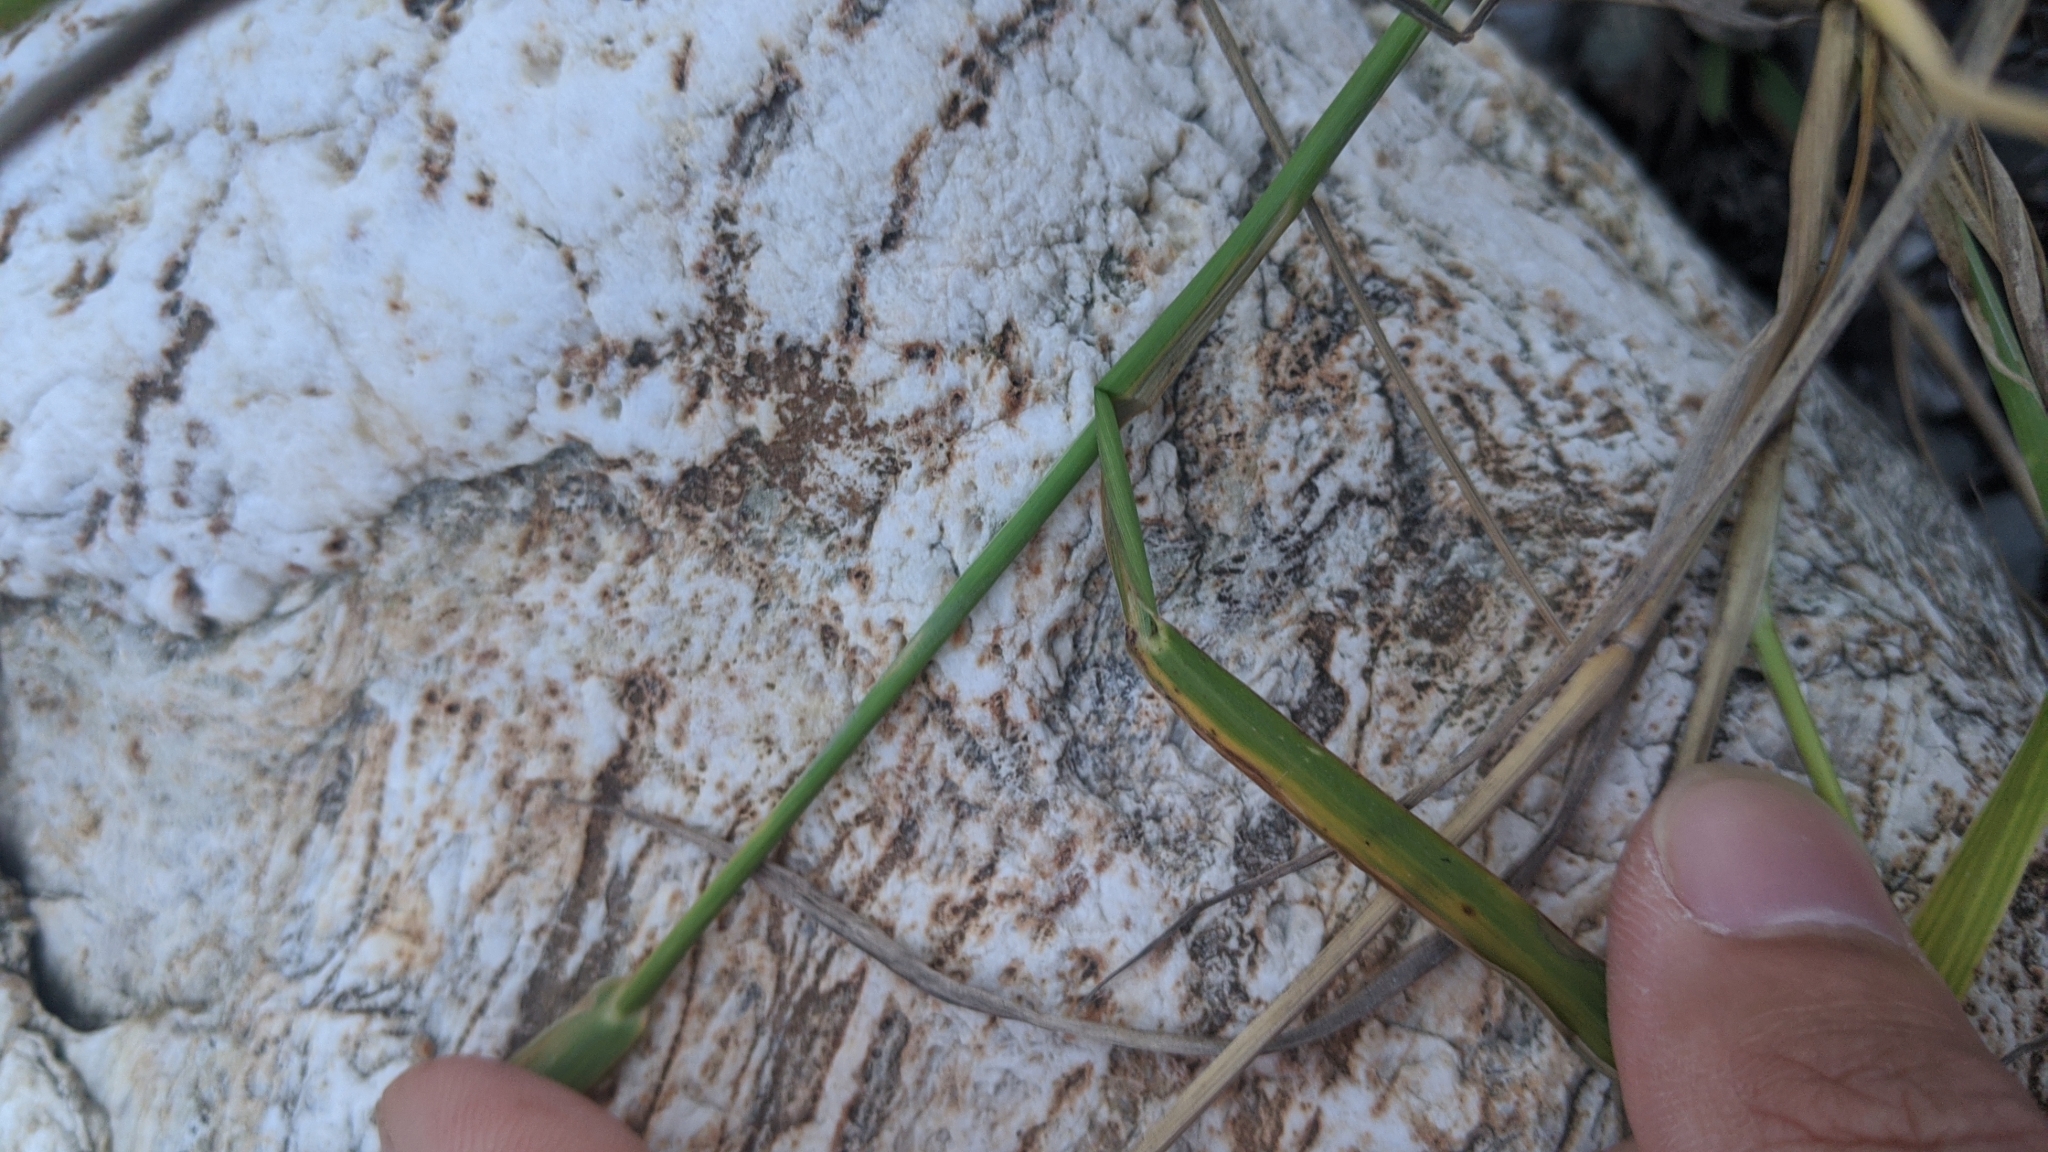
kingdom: Plantae
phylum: Tracheophyta
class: Liliopsida
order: Poales
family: Poaceae
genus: Echinochloa
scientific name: Echinochloa crus-galli
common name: Cockspur
